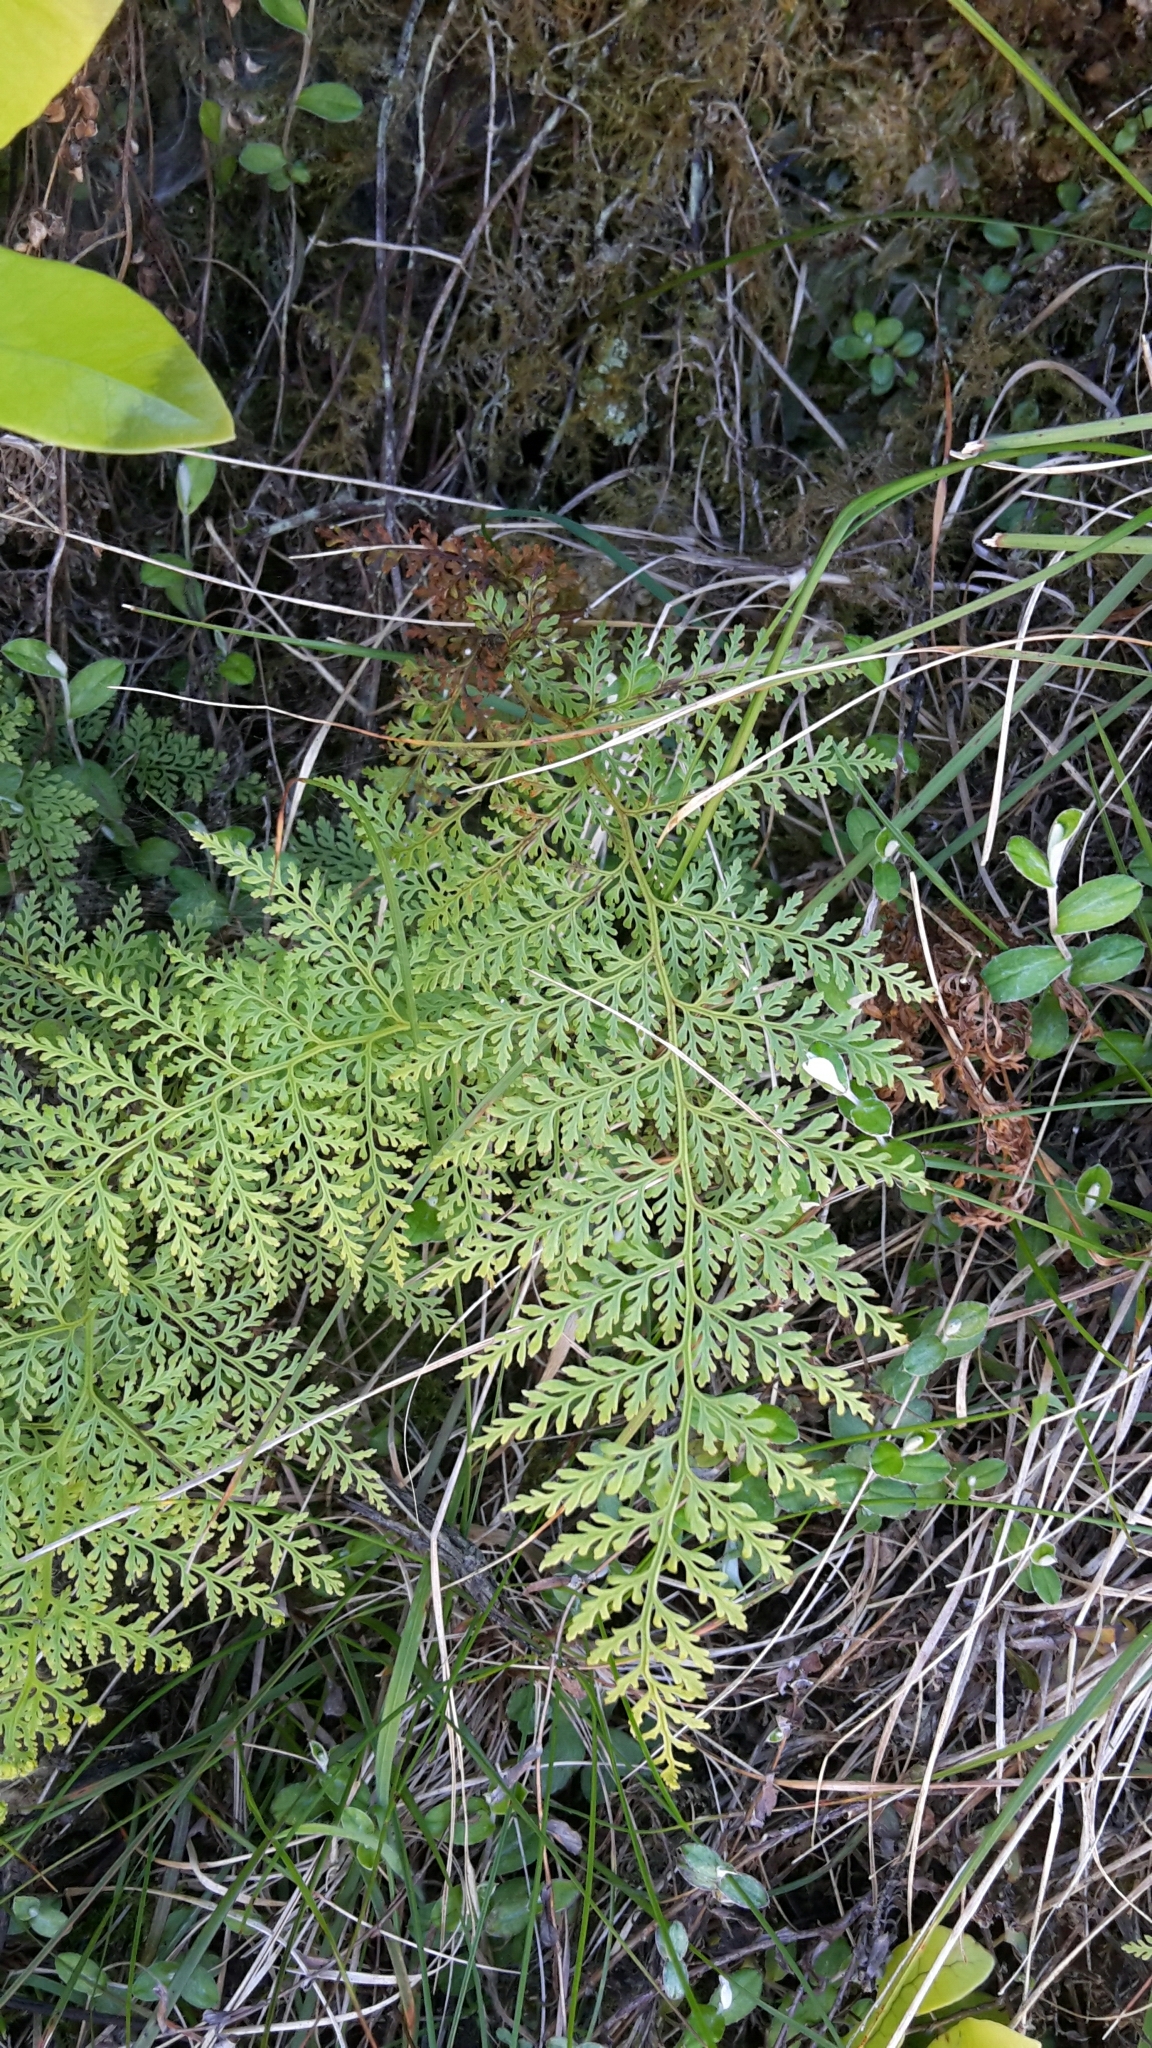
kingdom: Plantae
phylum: Tracheophyta
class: Polypodiopsida
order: Polypodiales
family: Dennstaedtiaceae
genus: Paesia
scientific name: Paesia scaberula
